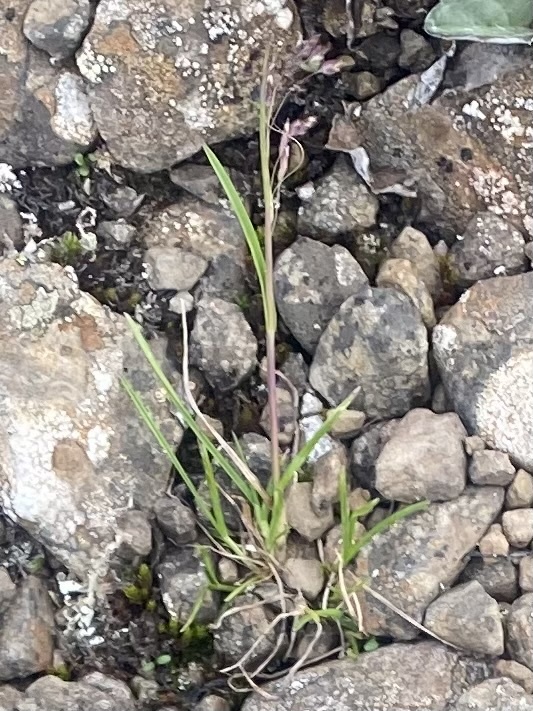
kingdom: Plantae
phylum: Tracheophyta
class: Liliopsida
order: Poales
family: Poaceae
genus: Poa
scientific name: Poa paucispicula
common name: Alaska bluegrass
